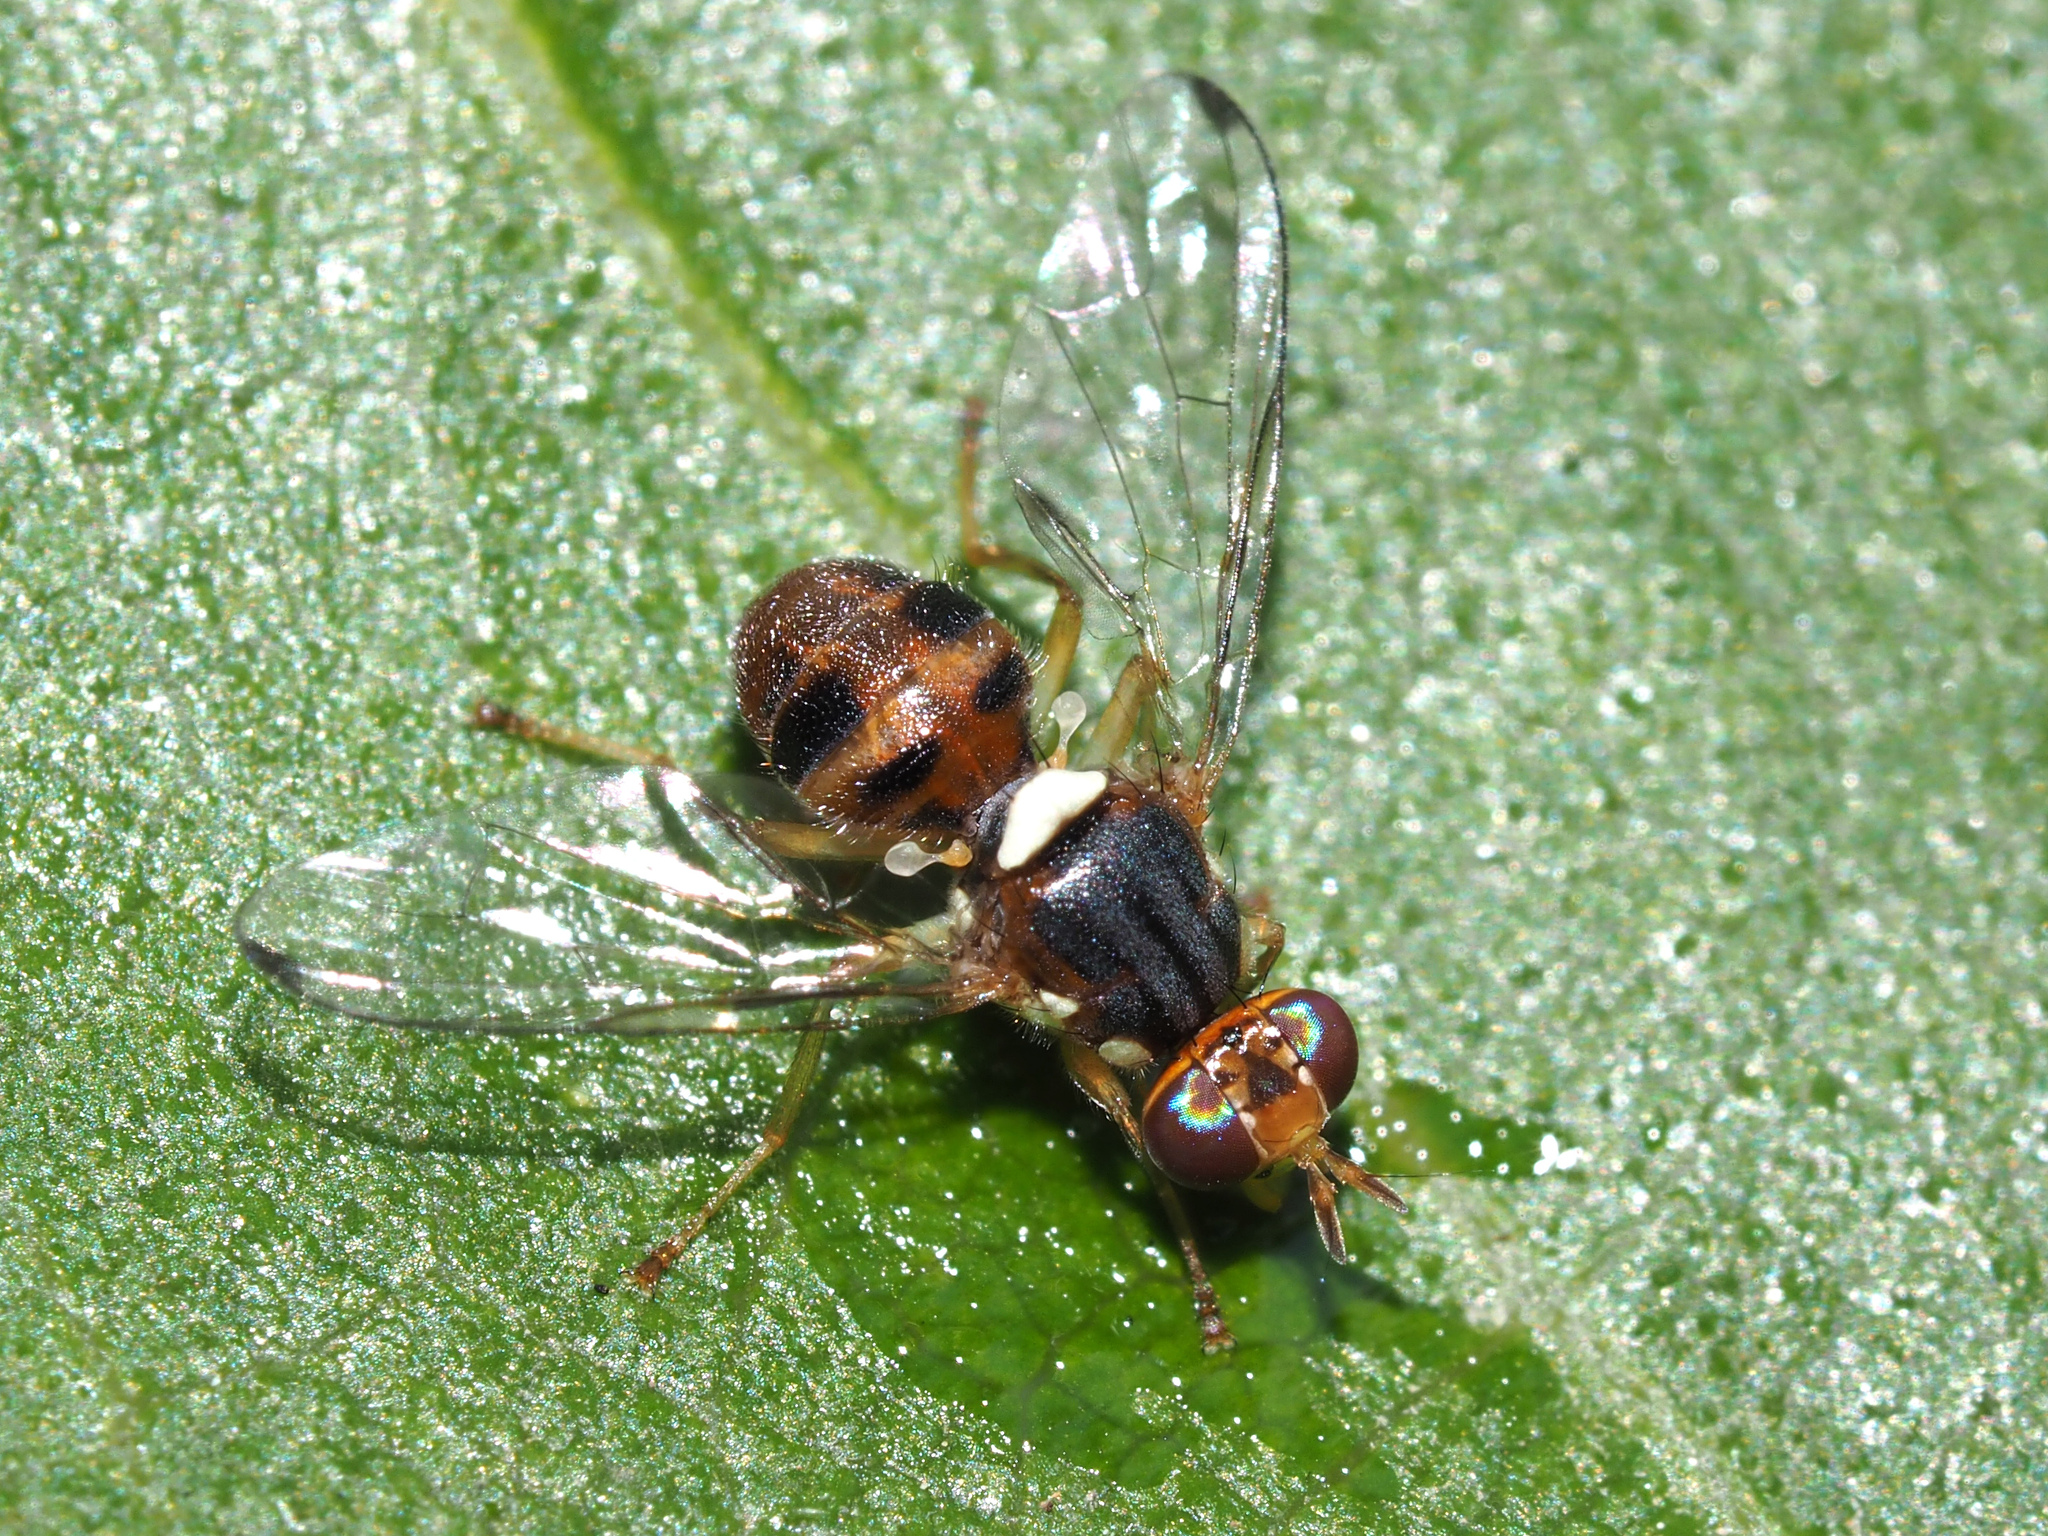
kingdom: Animalia
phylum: Arthropoda
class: Insecta
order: Diptera
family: Tephritidae
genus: Bactrocera
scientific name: Bactrocera oleae
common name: Olive fruit fly
